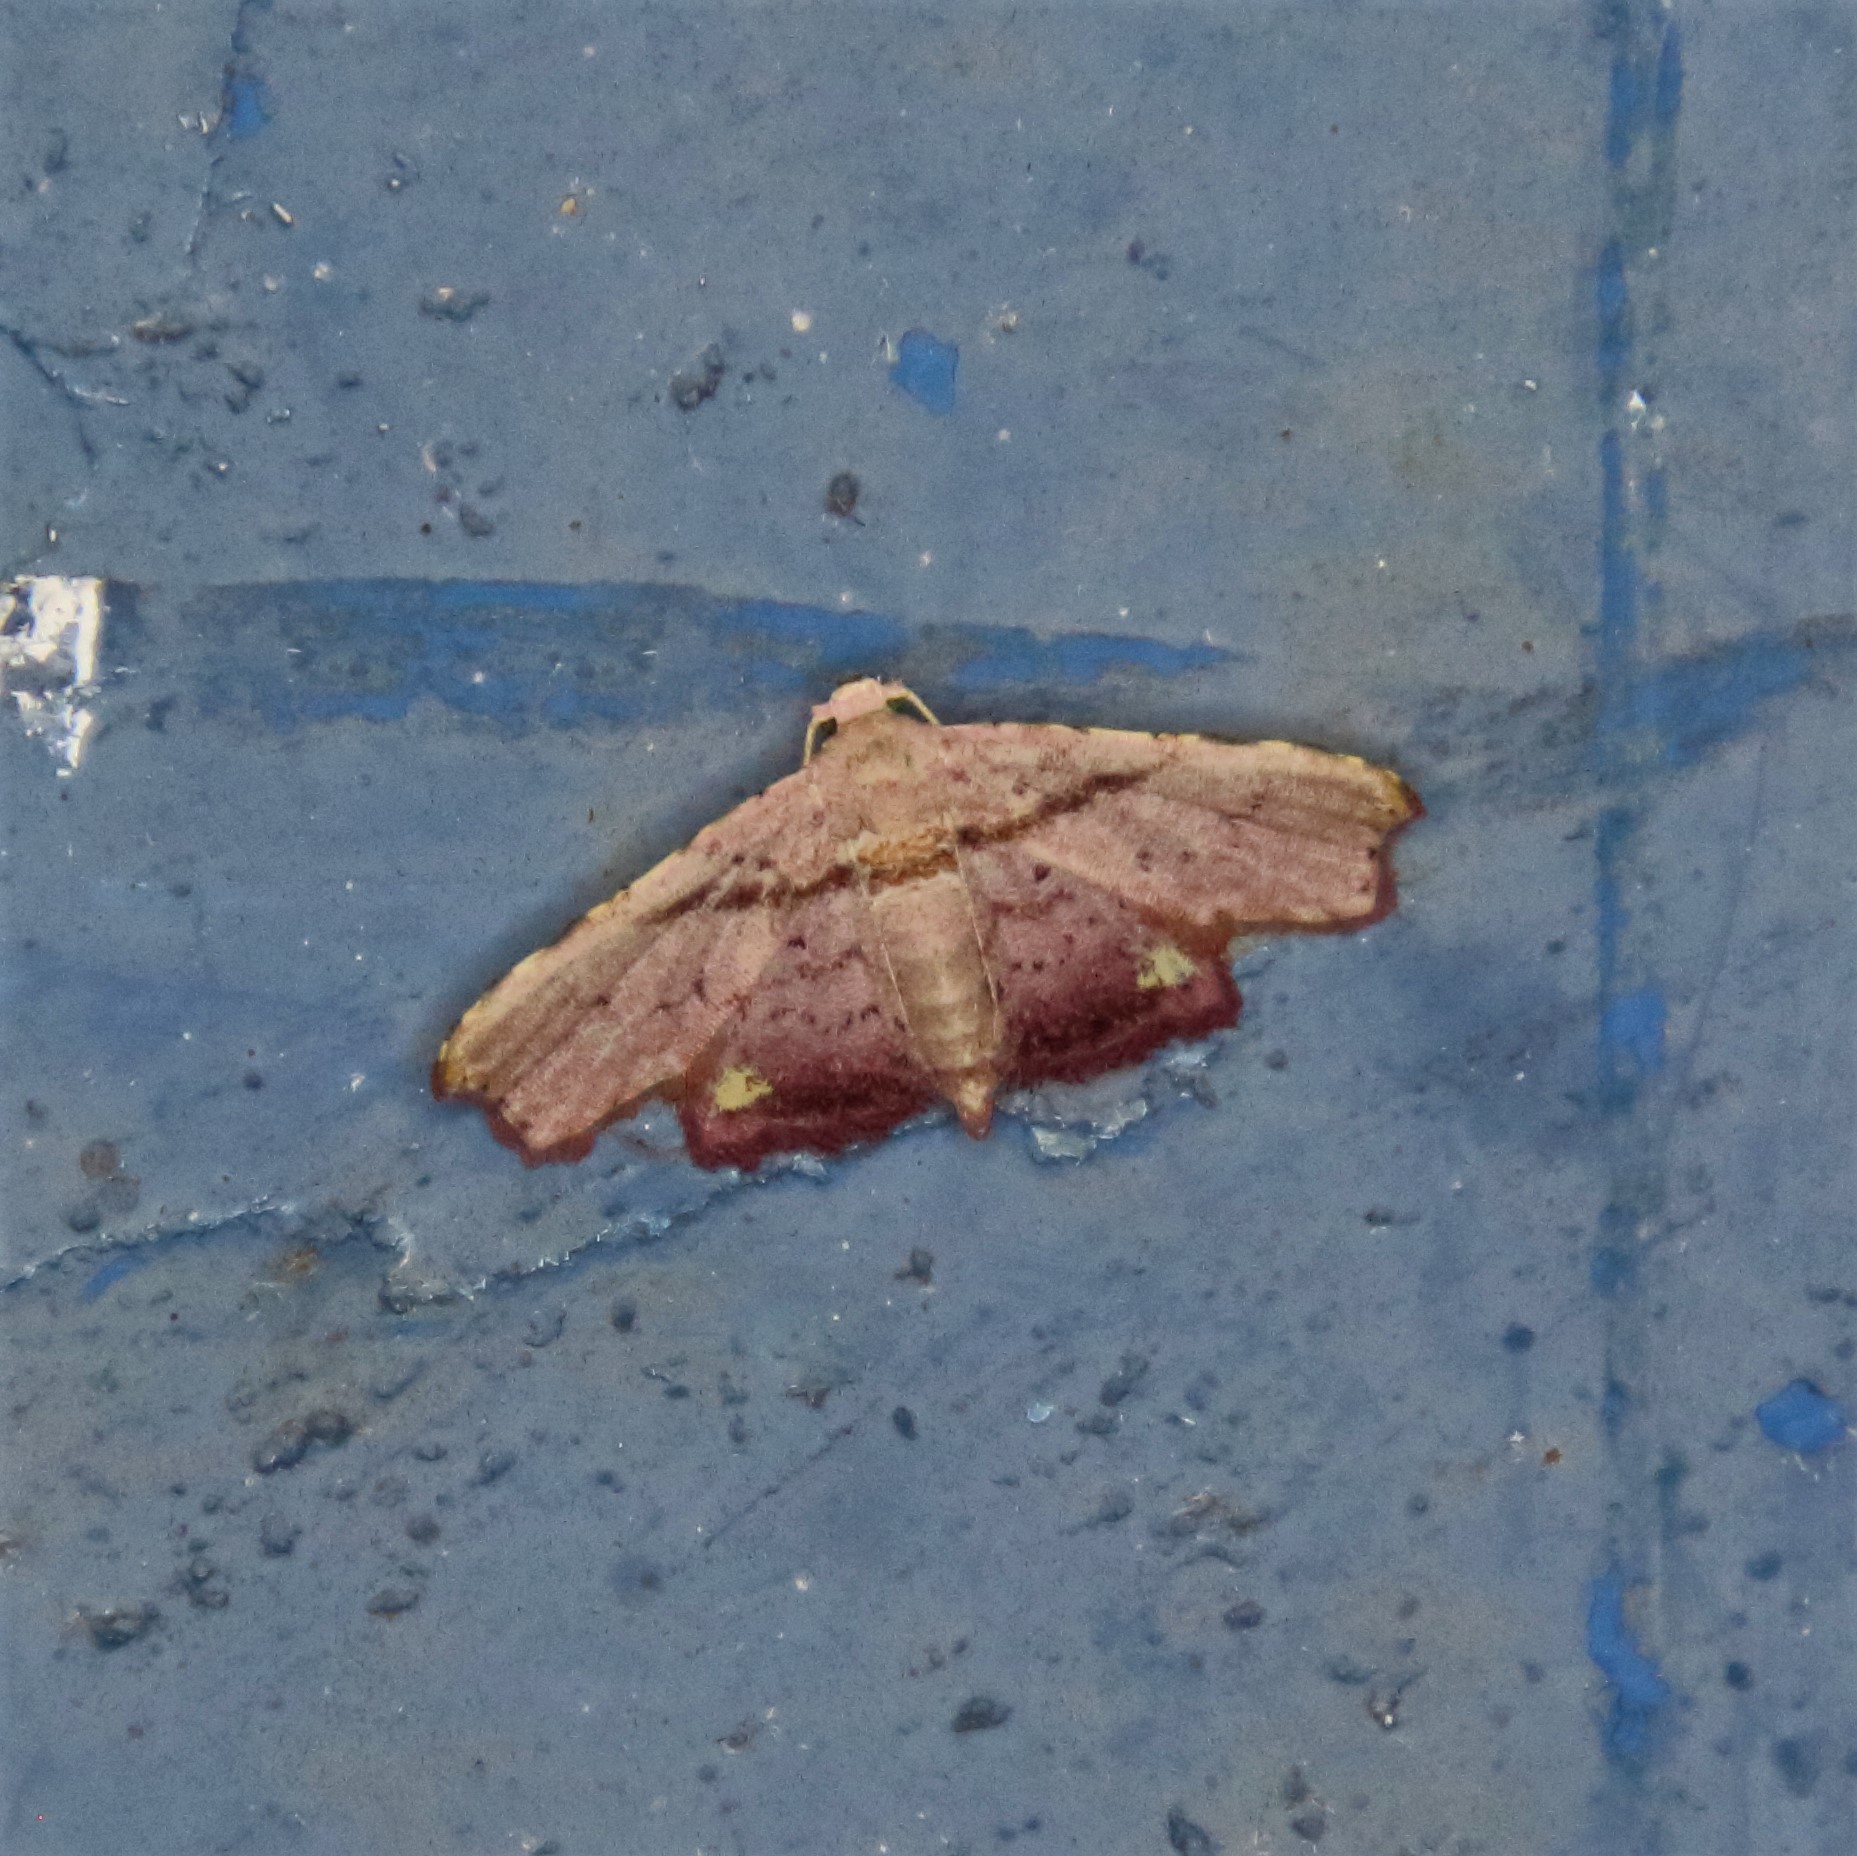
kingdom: Animalia
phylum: Arthropoda
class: Insecta
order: Lepidoptera
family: Noctuidae
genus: Niaccaba
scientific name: Niaccaba sumptualis
